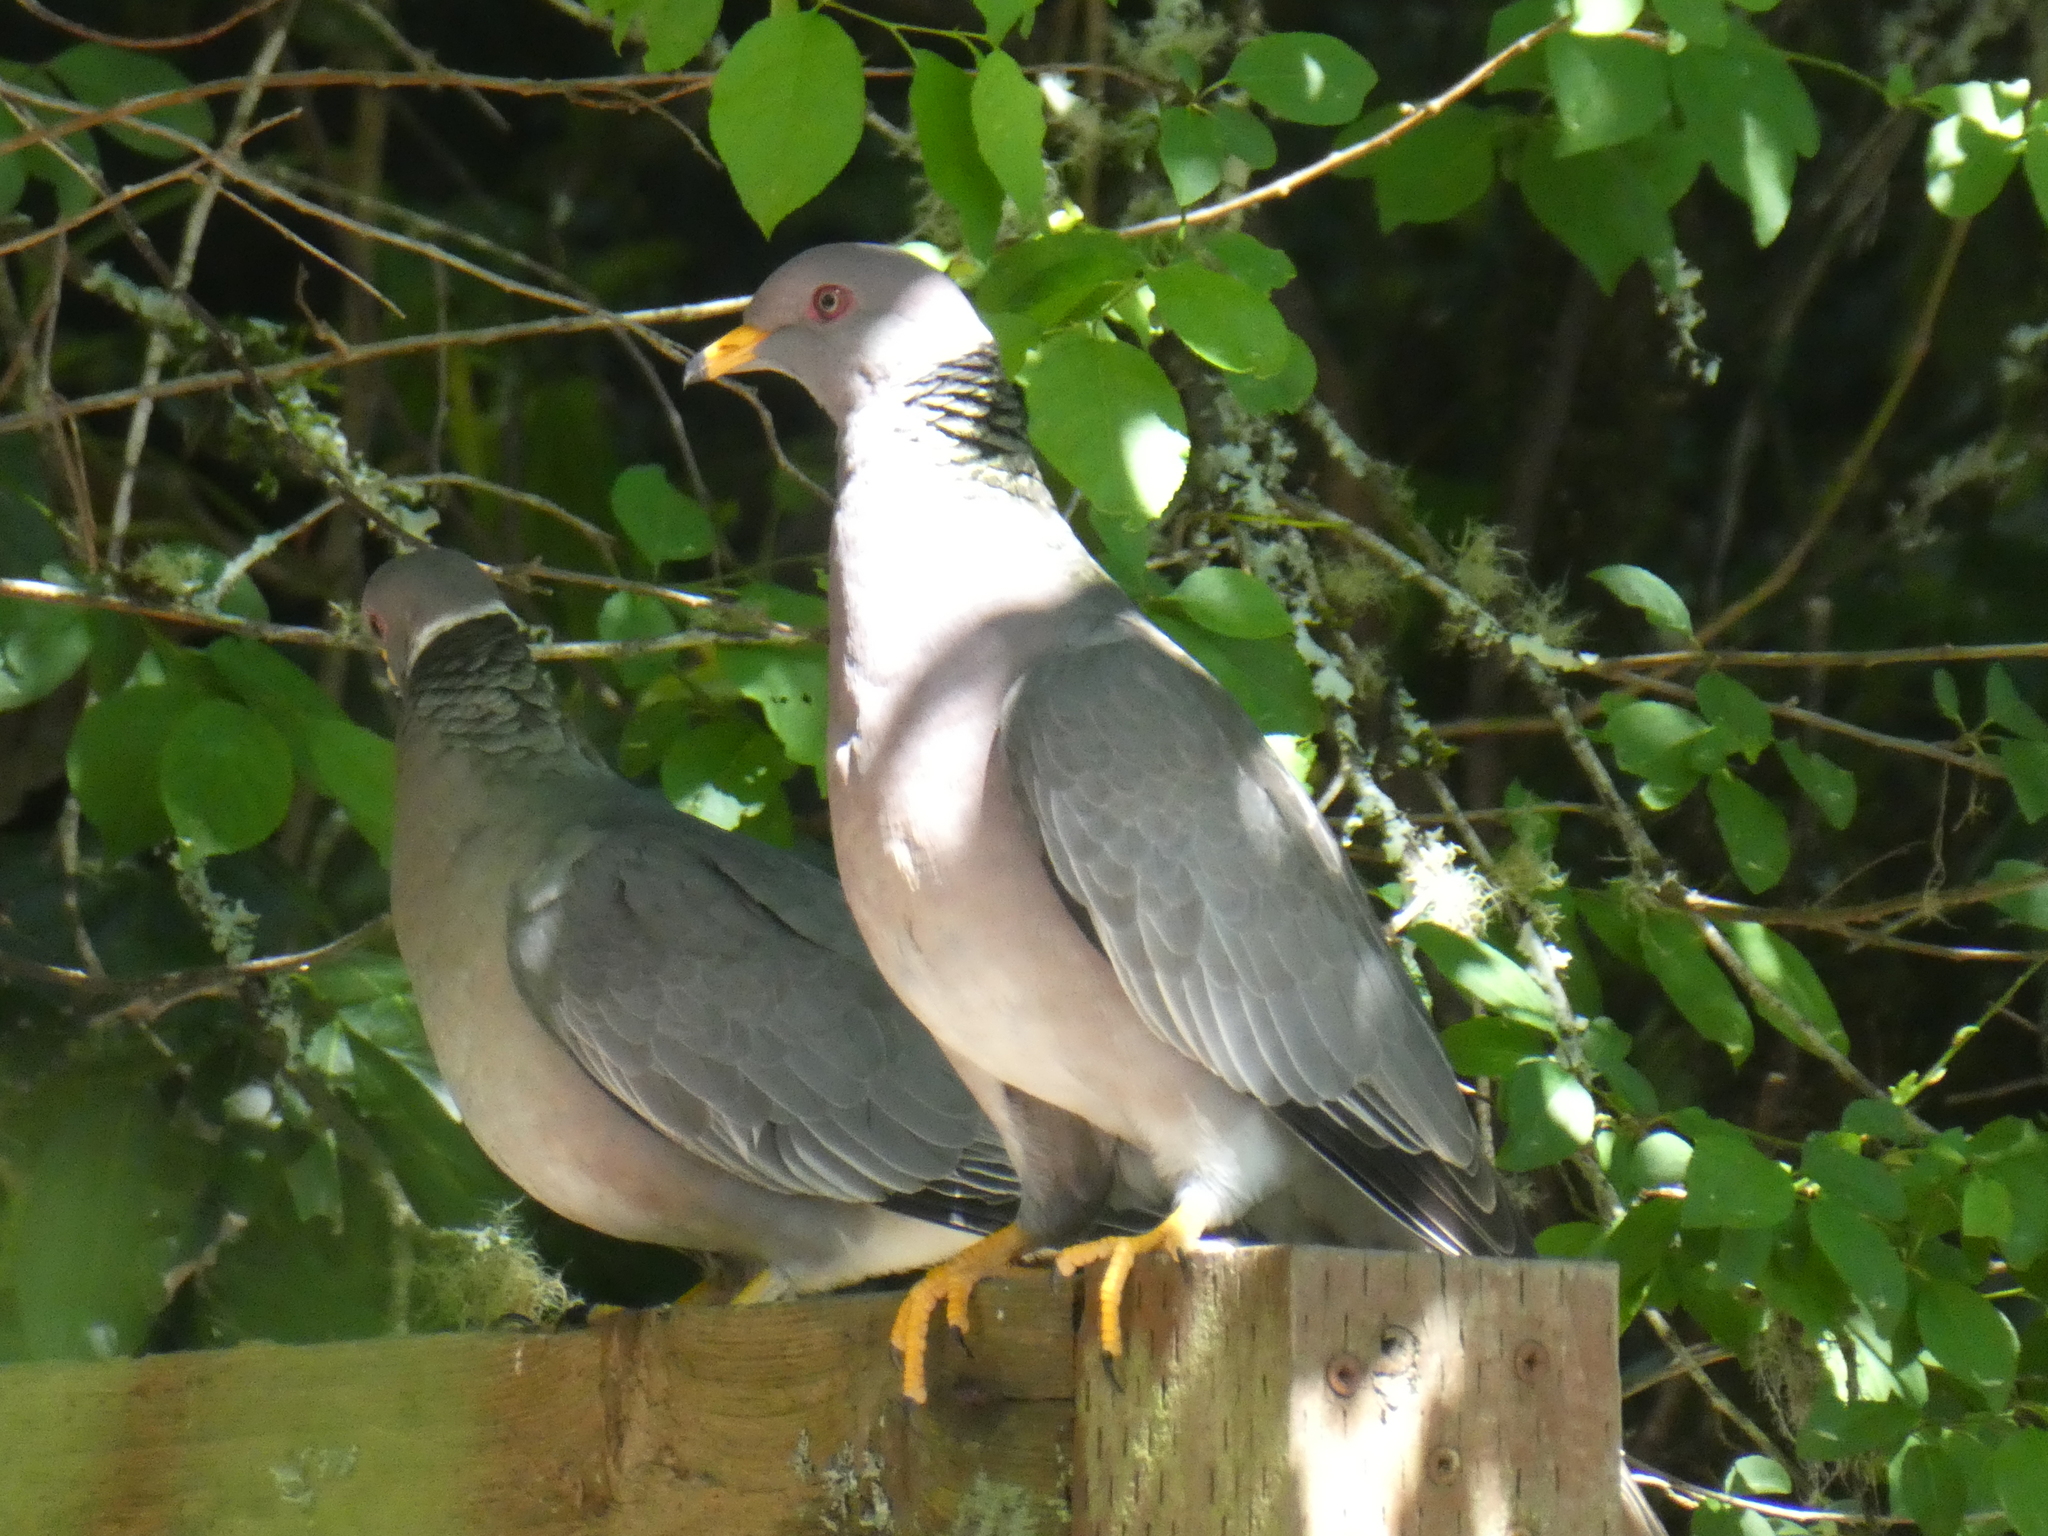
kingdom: Animalia
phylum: Chordata
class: Aves
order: Columbiformes
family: Columbidae
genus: Patagioenas
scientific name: Patagioenas fasciata
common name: Band-tailed pigeon
